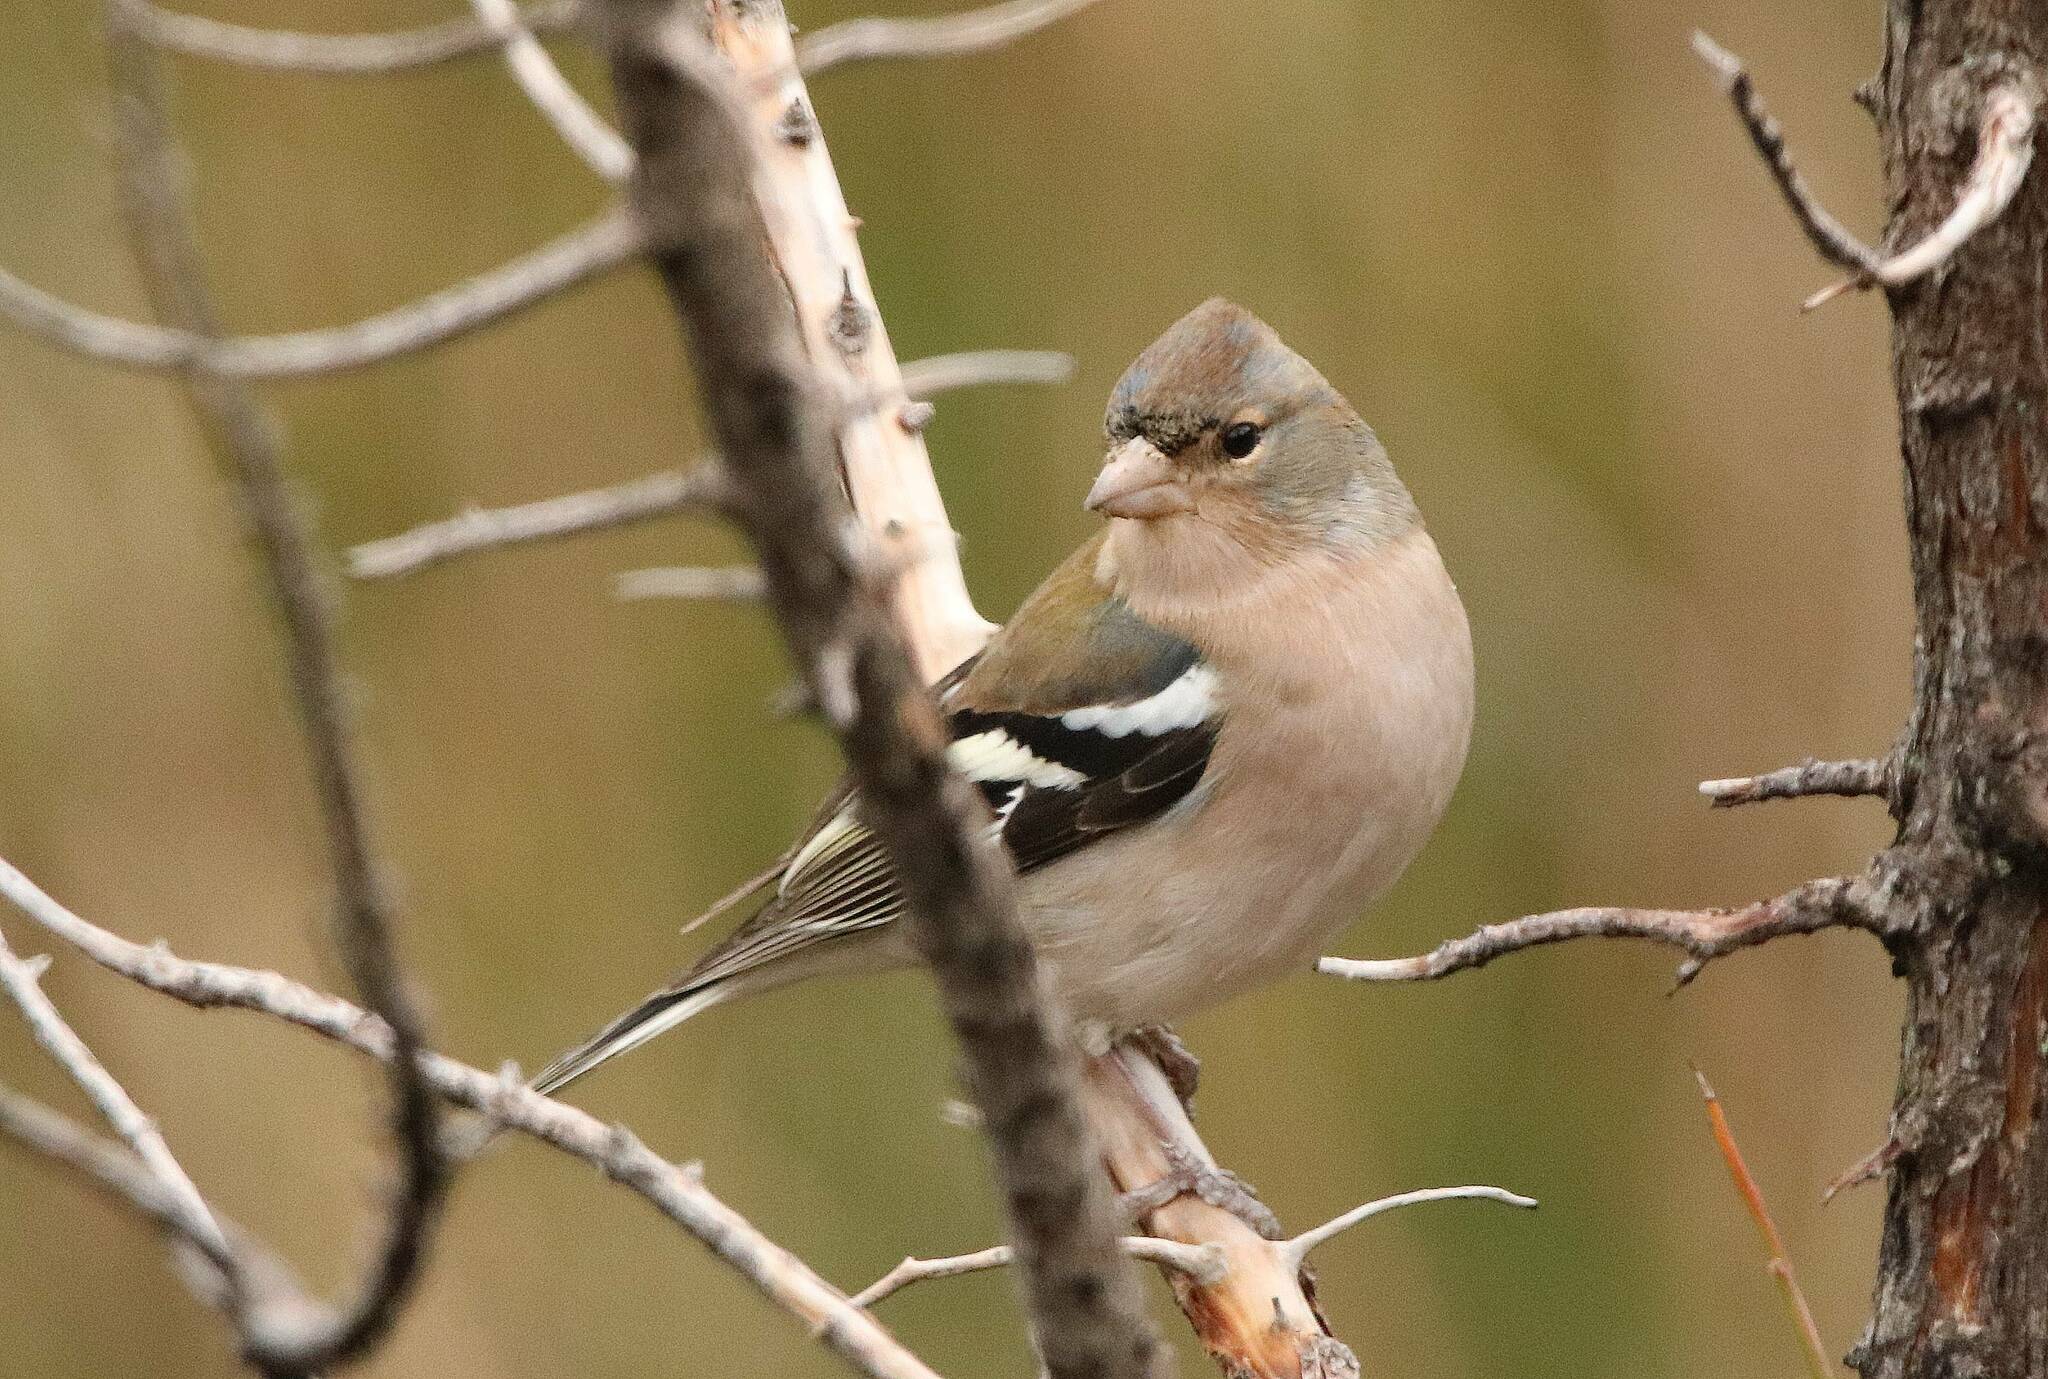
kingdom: Animalia
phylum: Chordata
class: Aves
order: Passeriformes
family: Fringillidae
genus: Fringilla
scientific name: Fringilla spodiogenys
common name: African chaffinch
